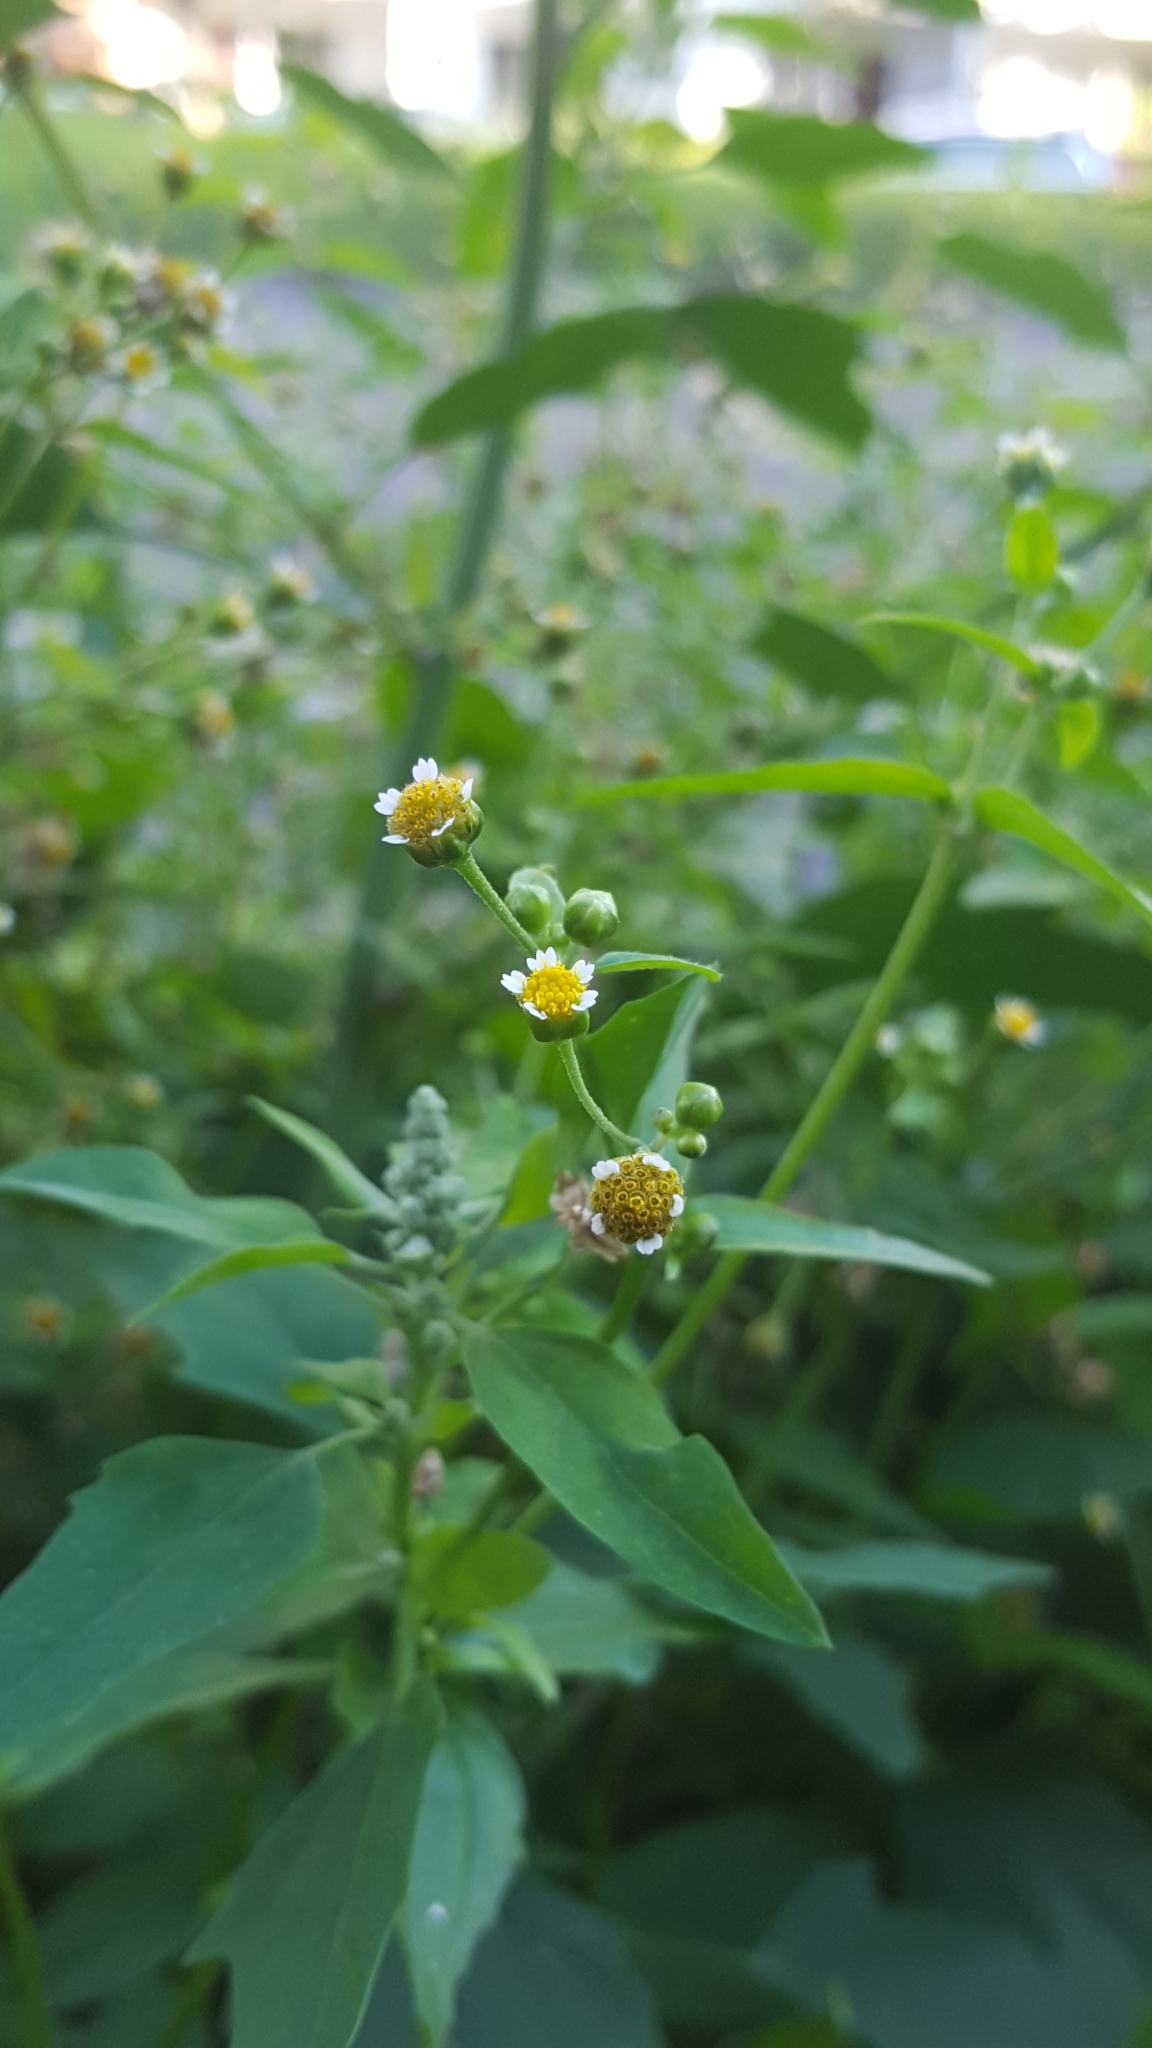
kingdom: Plantae
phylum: Tracheophyta
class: Magnoliopsida
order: Asterales
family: Asteraceae
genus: Galinsoga
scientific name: Galinsoga parviflora
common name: Gallant soldier
